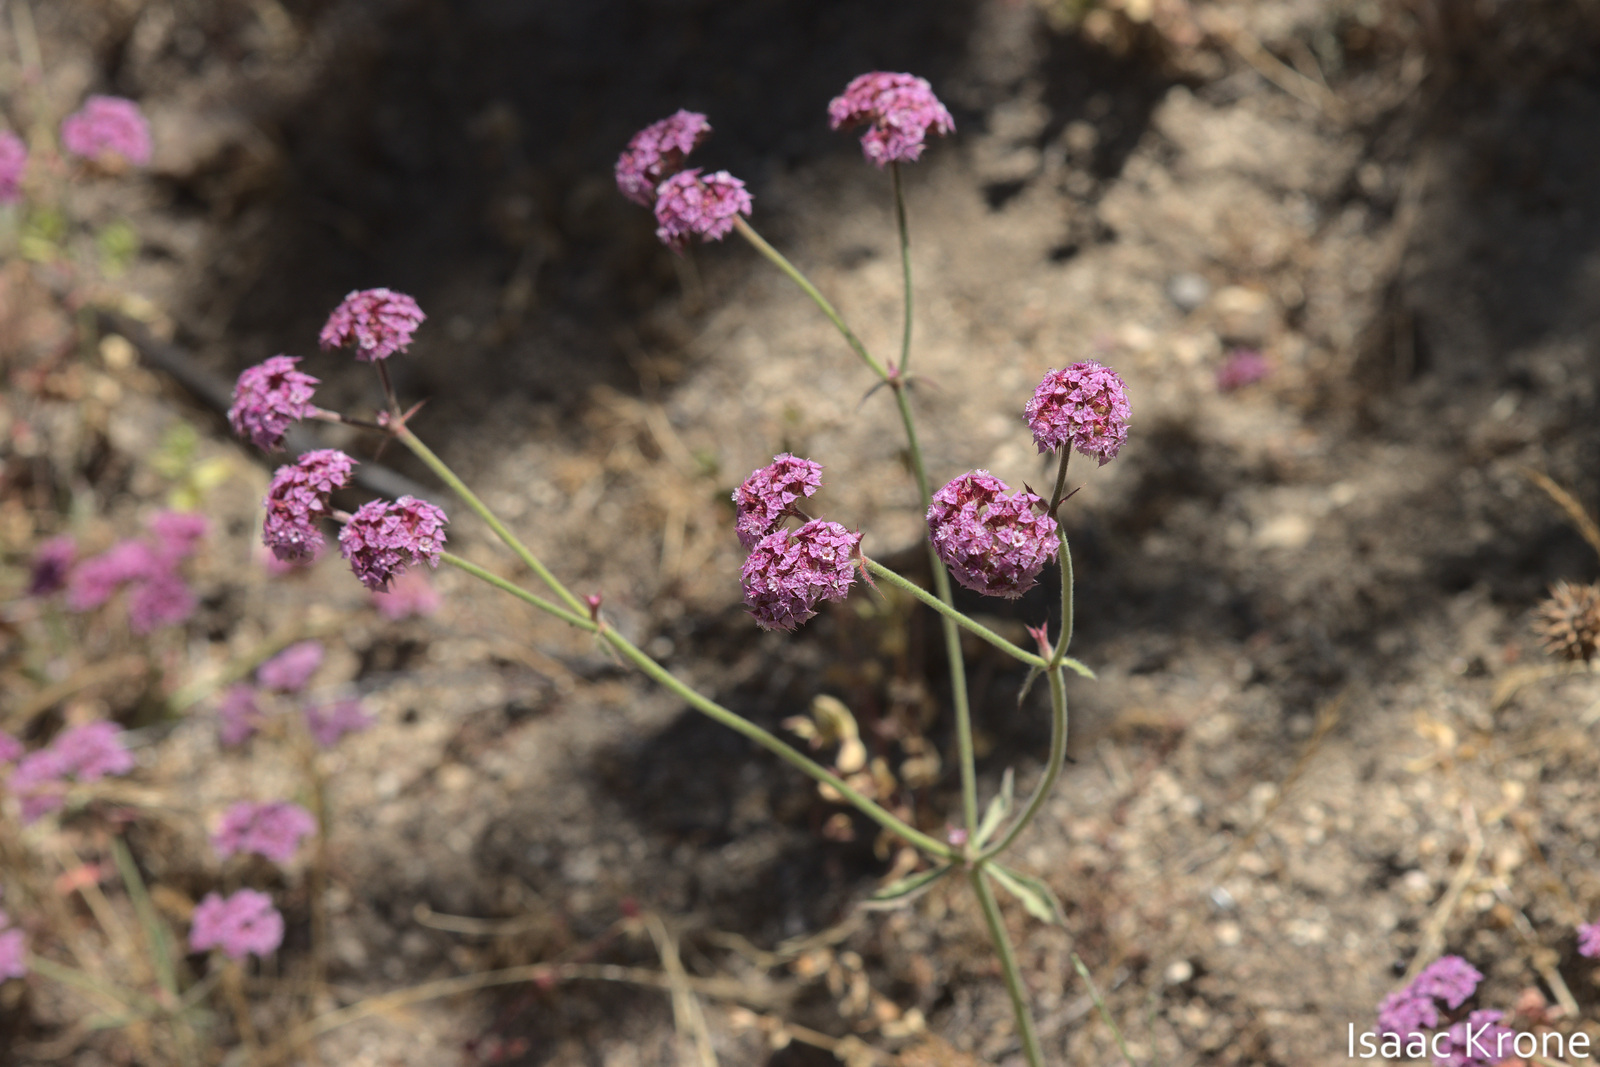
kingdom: Plantae
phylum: Tracheophyta
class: Magnoliopsida
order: Caryophyllales
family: Polygonaceae
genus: Chorizanthe
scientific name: Chorizanthe douglasii
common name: Douglas's spineflower
